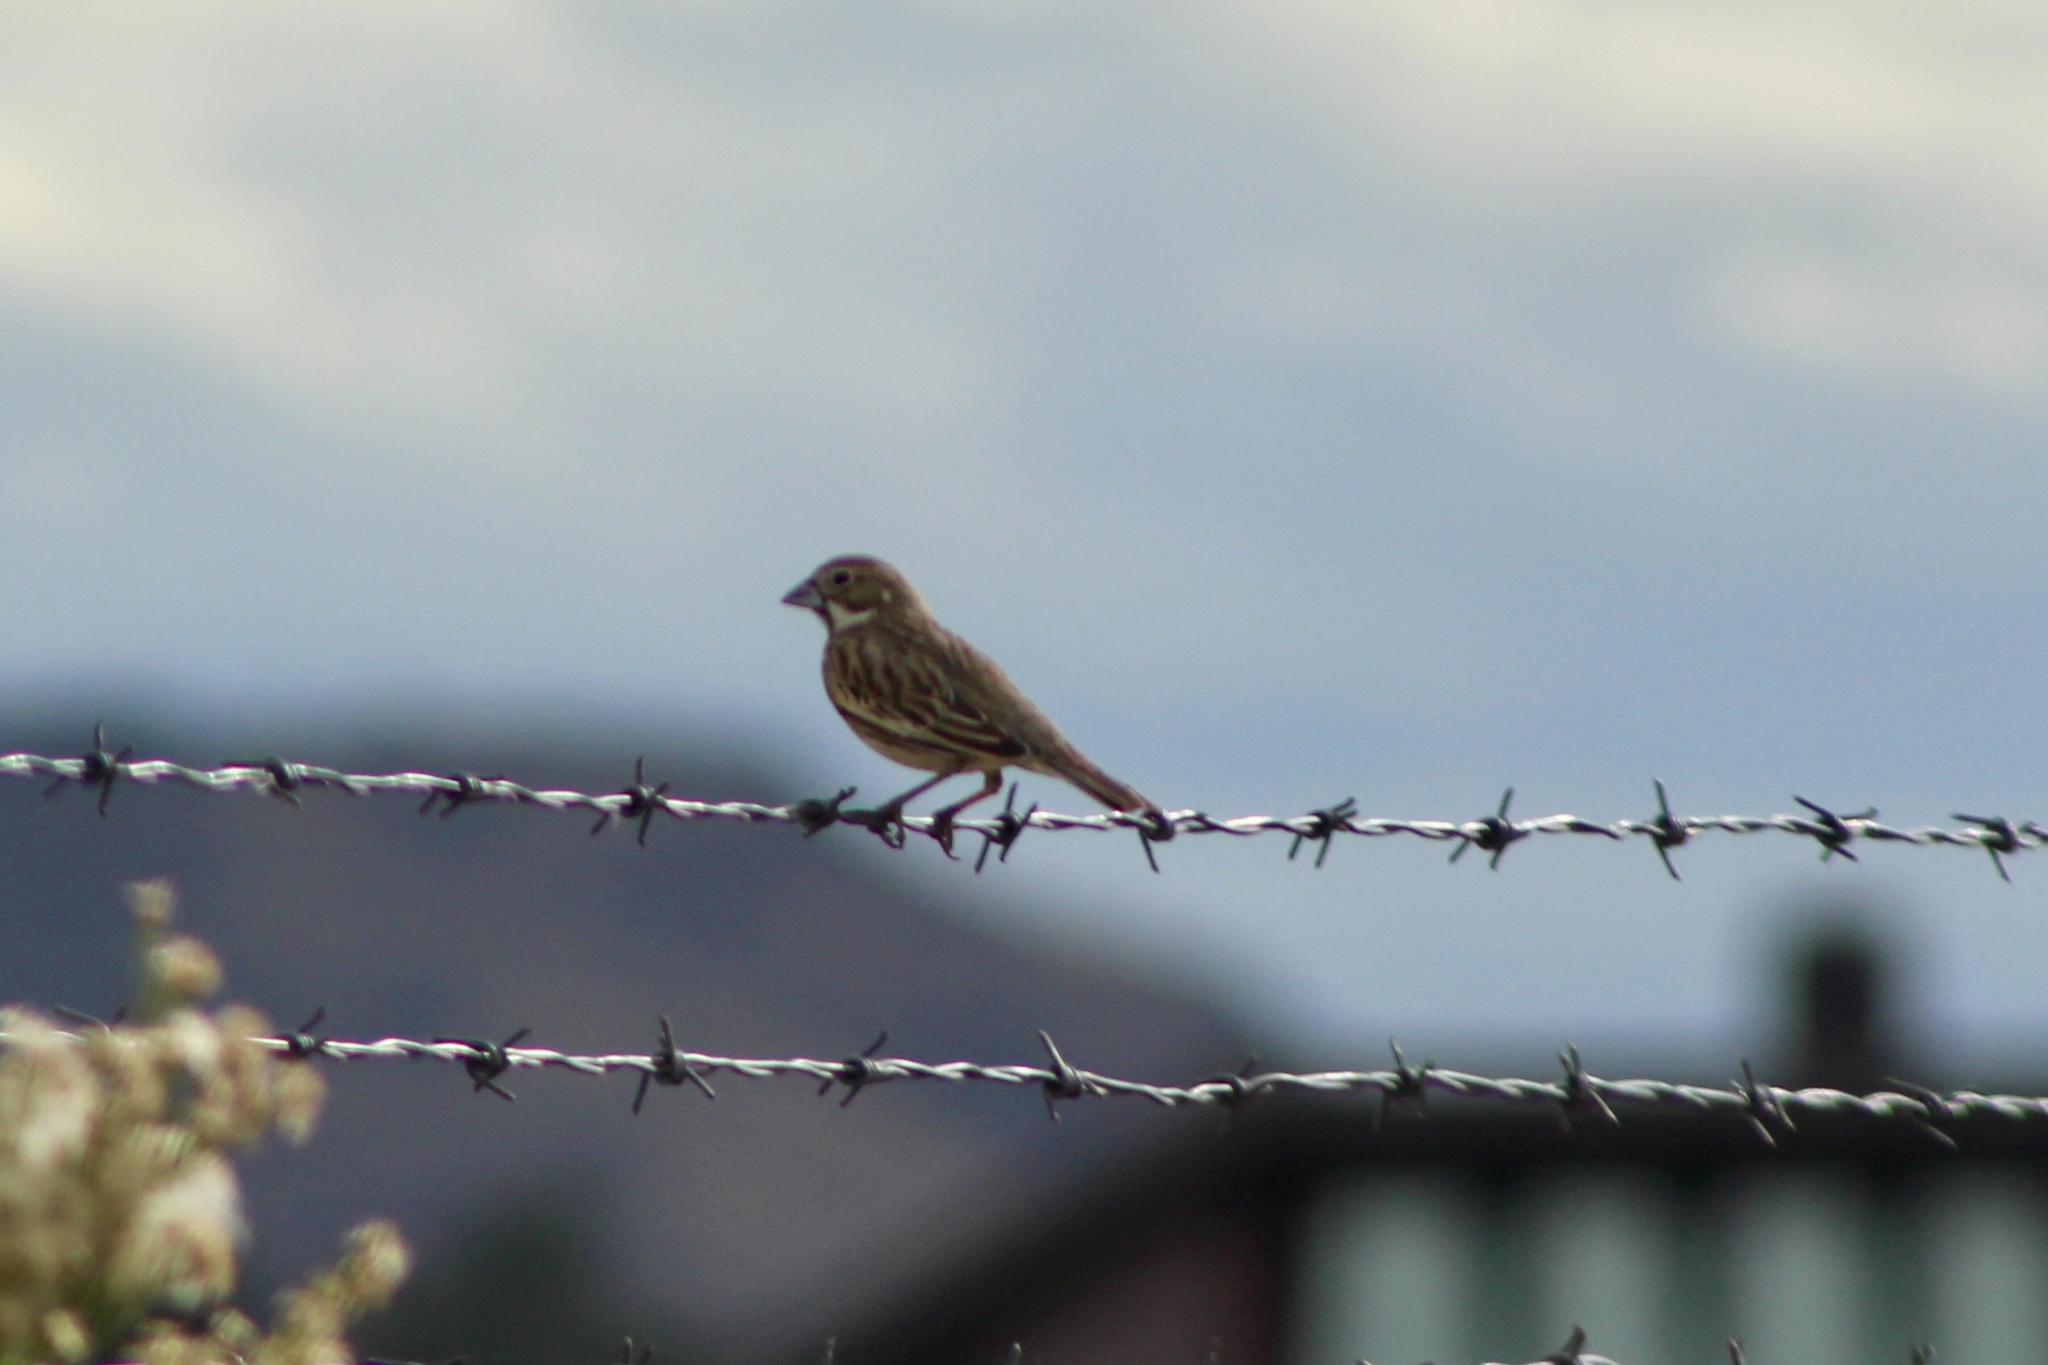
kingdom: Animalia
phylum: Chordata
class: Aves
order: Passeriformes
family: Passerellidae
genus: Calamospiza
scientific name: Calamospiza melanocorys
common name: Lark bunting
